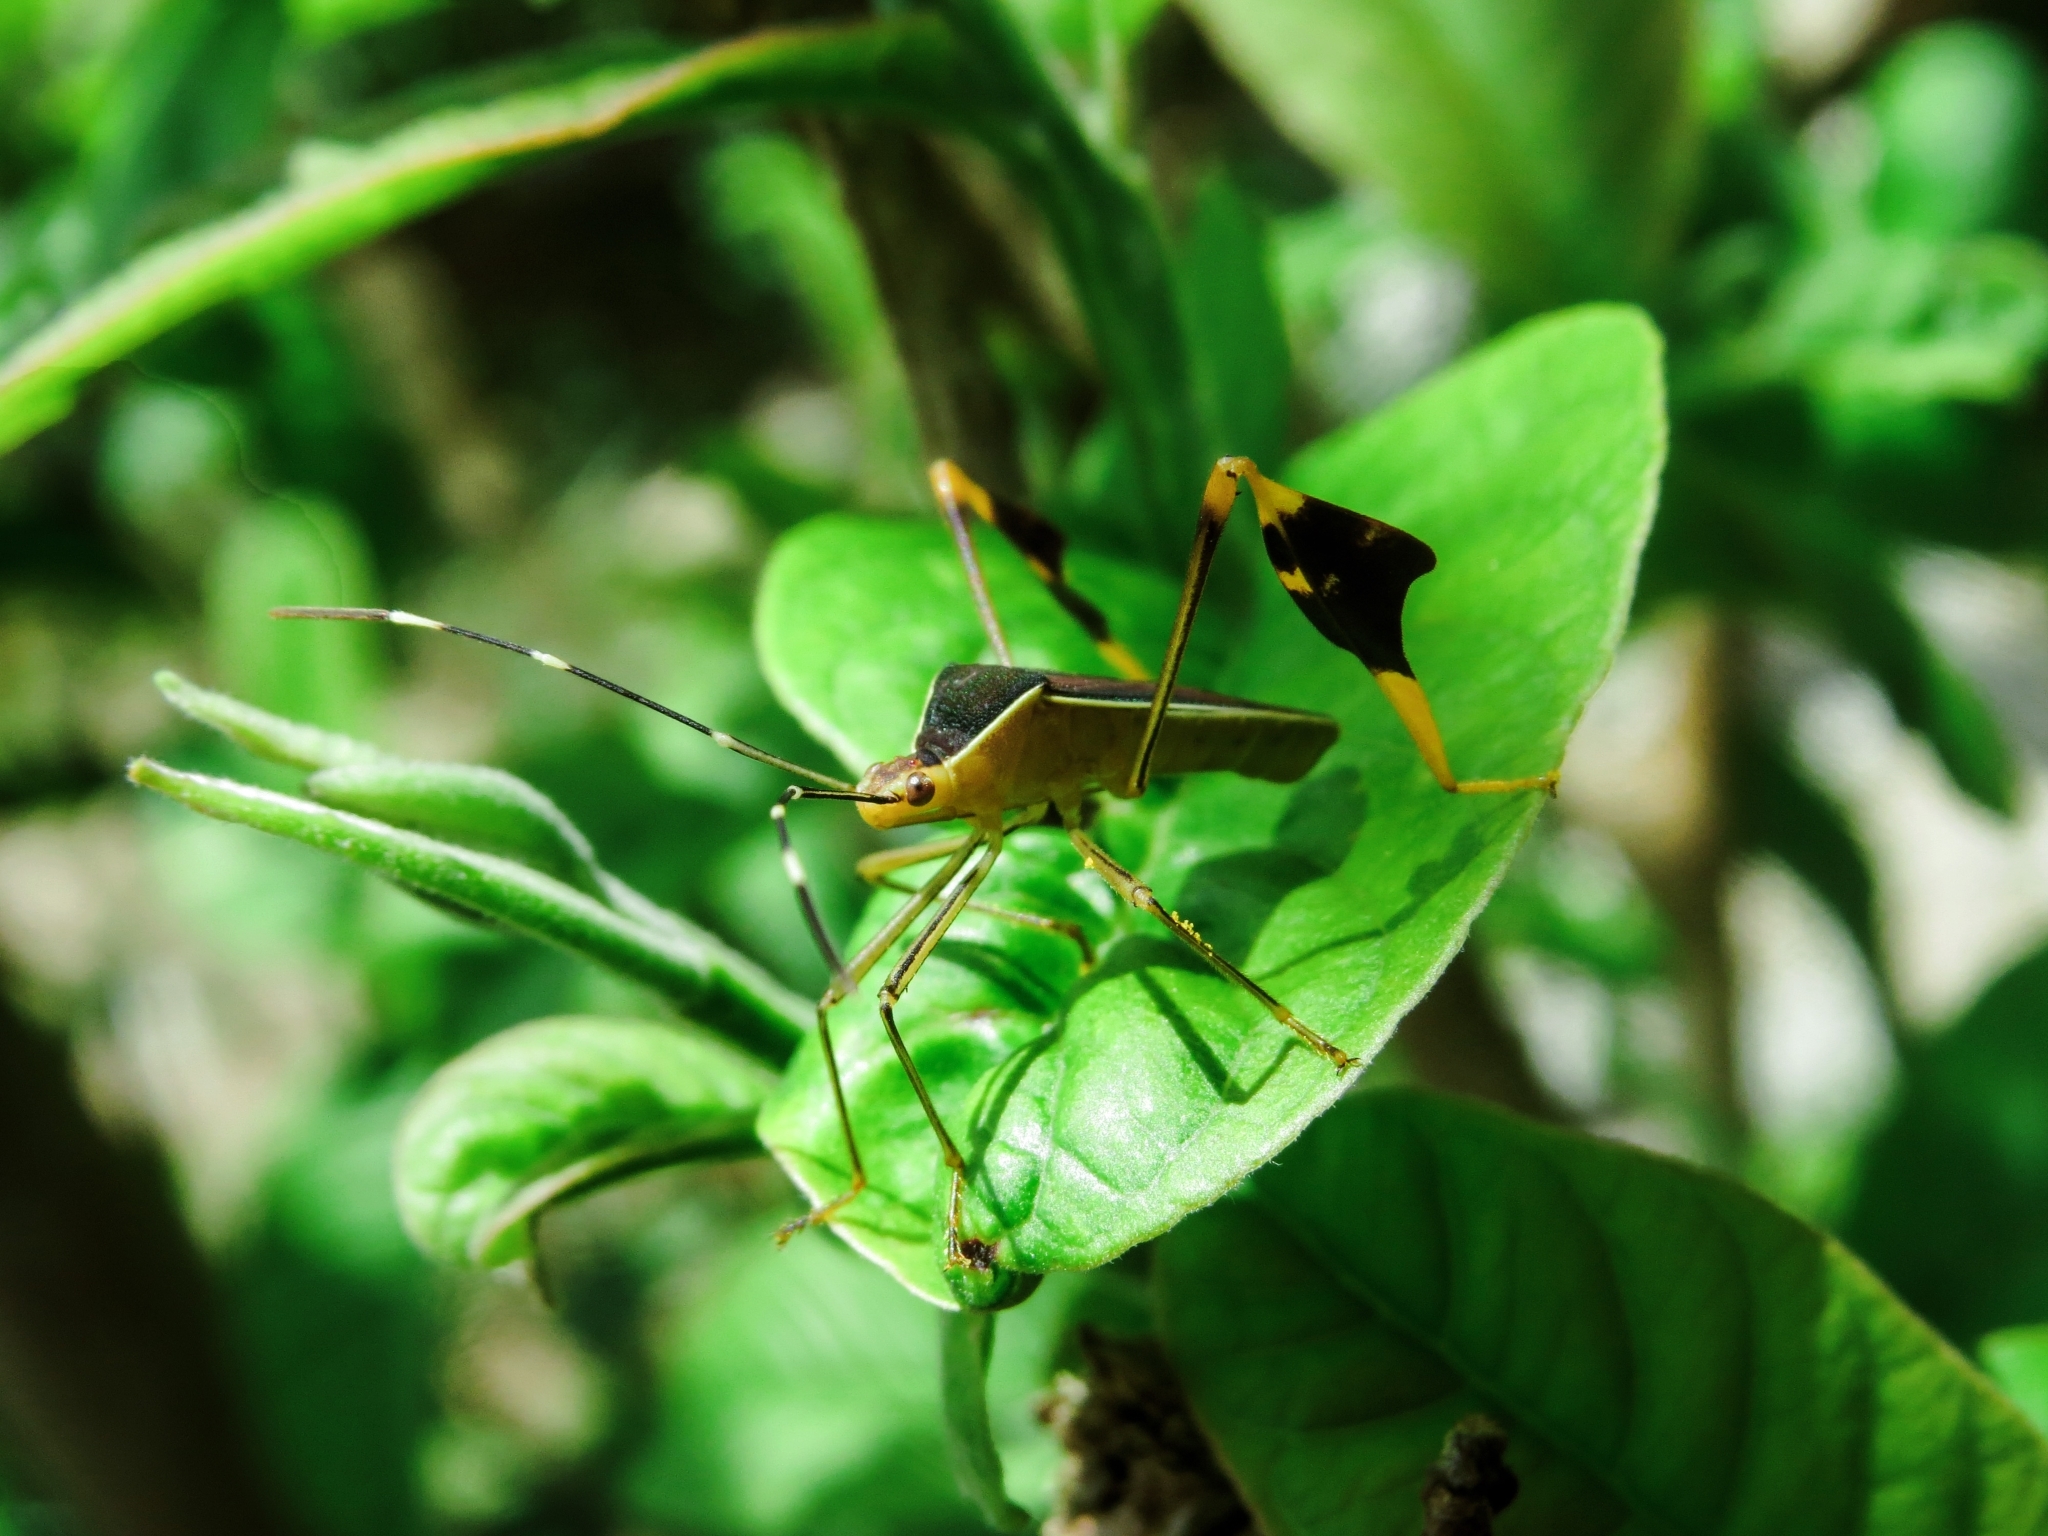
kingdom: Animalia
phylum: Arthropoda
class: Insecta
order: Hemiptera
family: Coreidae
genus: Anisoscelis
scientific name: Anisoscelis marginellus
